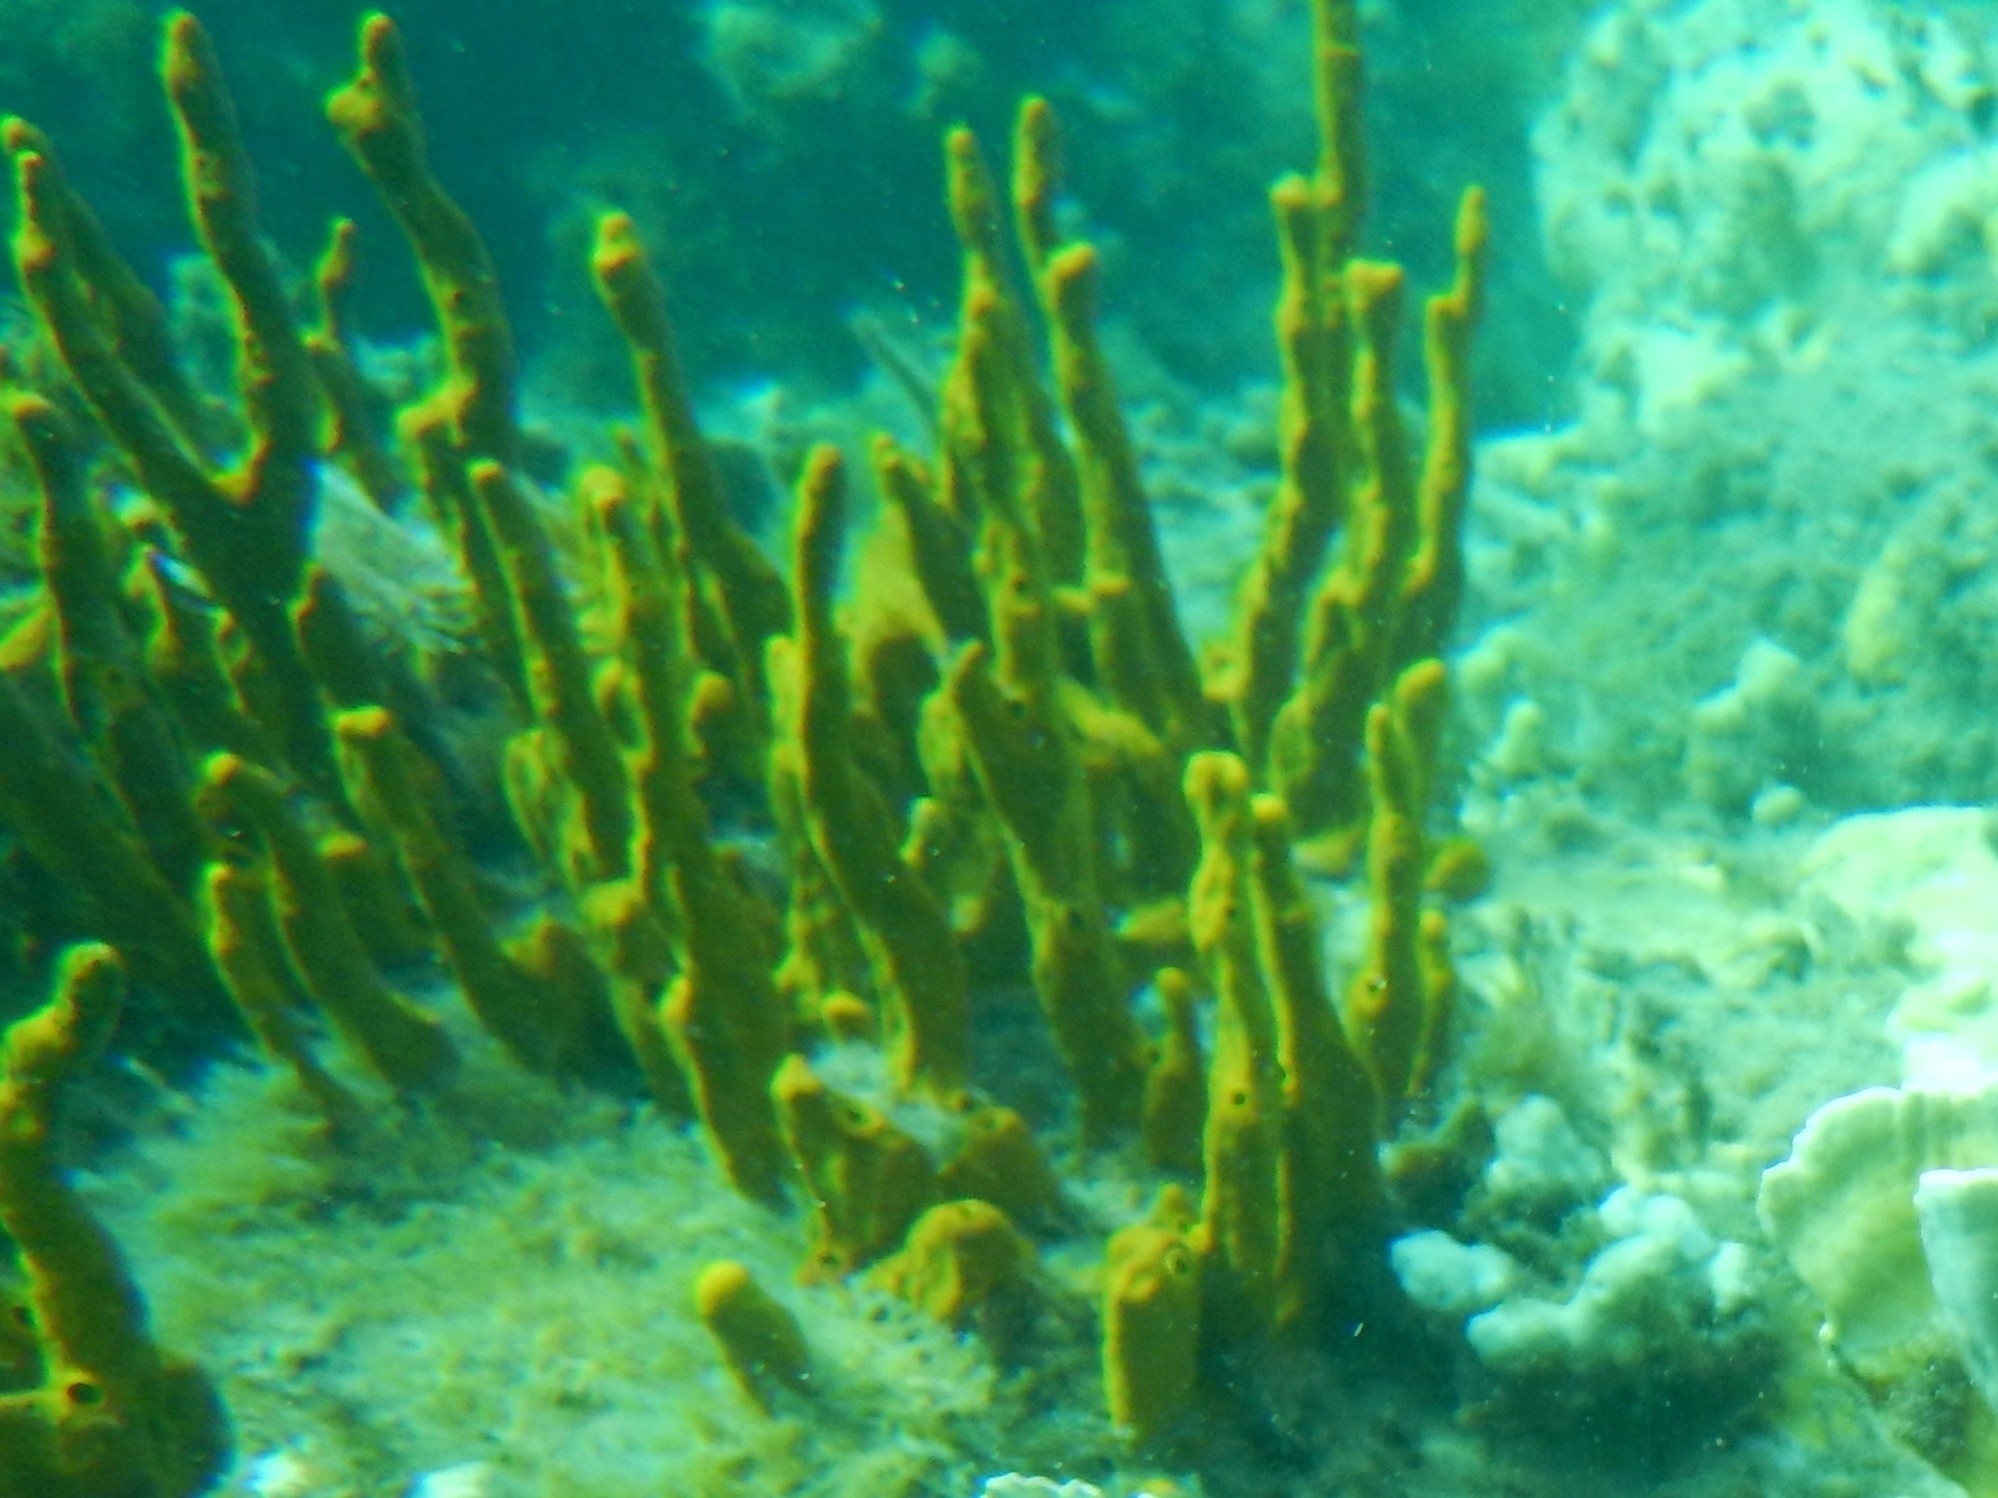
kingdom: Animalia
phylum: Porifera
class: Demospongiae
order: Verongiida
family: Aplysinidae
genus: Aplysina
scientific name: Aplysina fulva
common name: Scattered pore rope sponge
